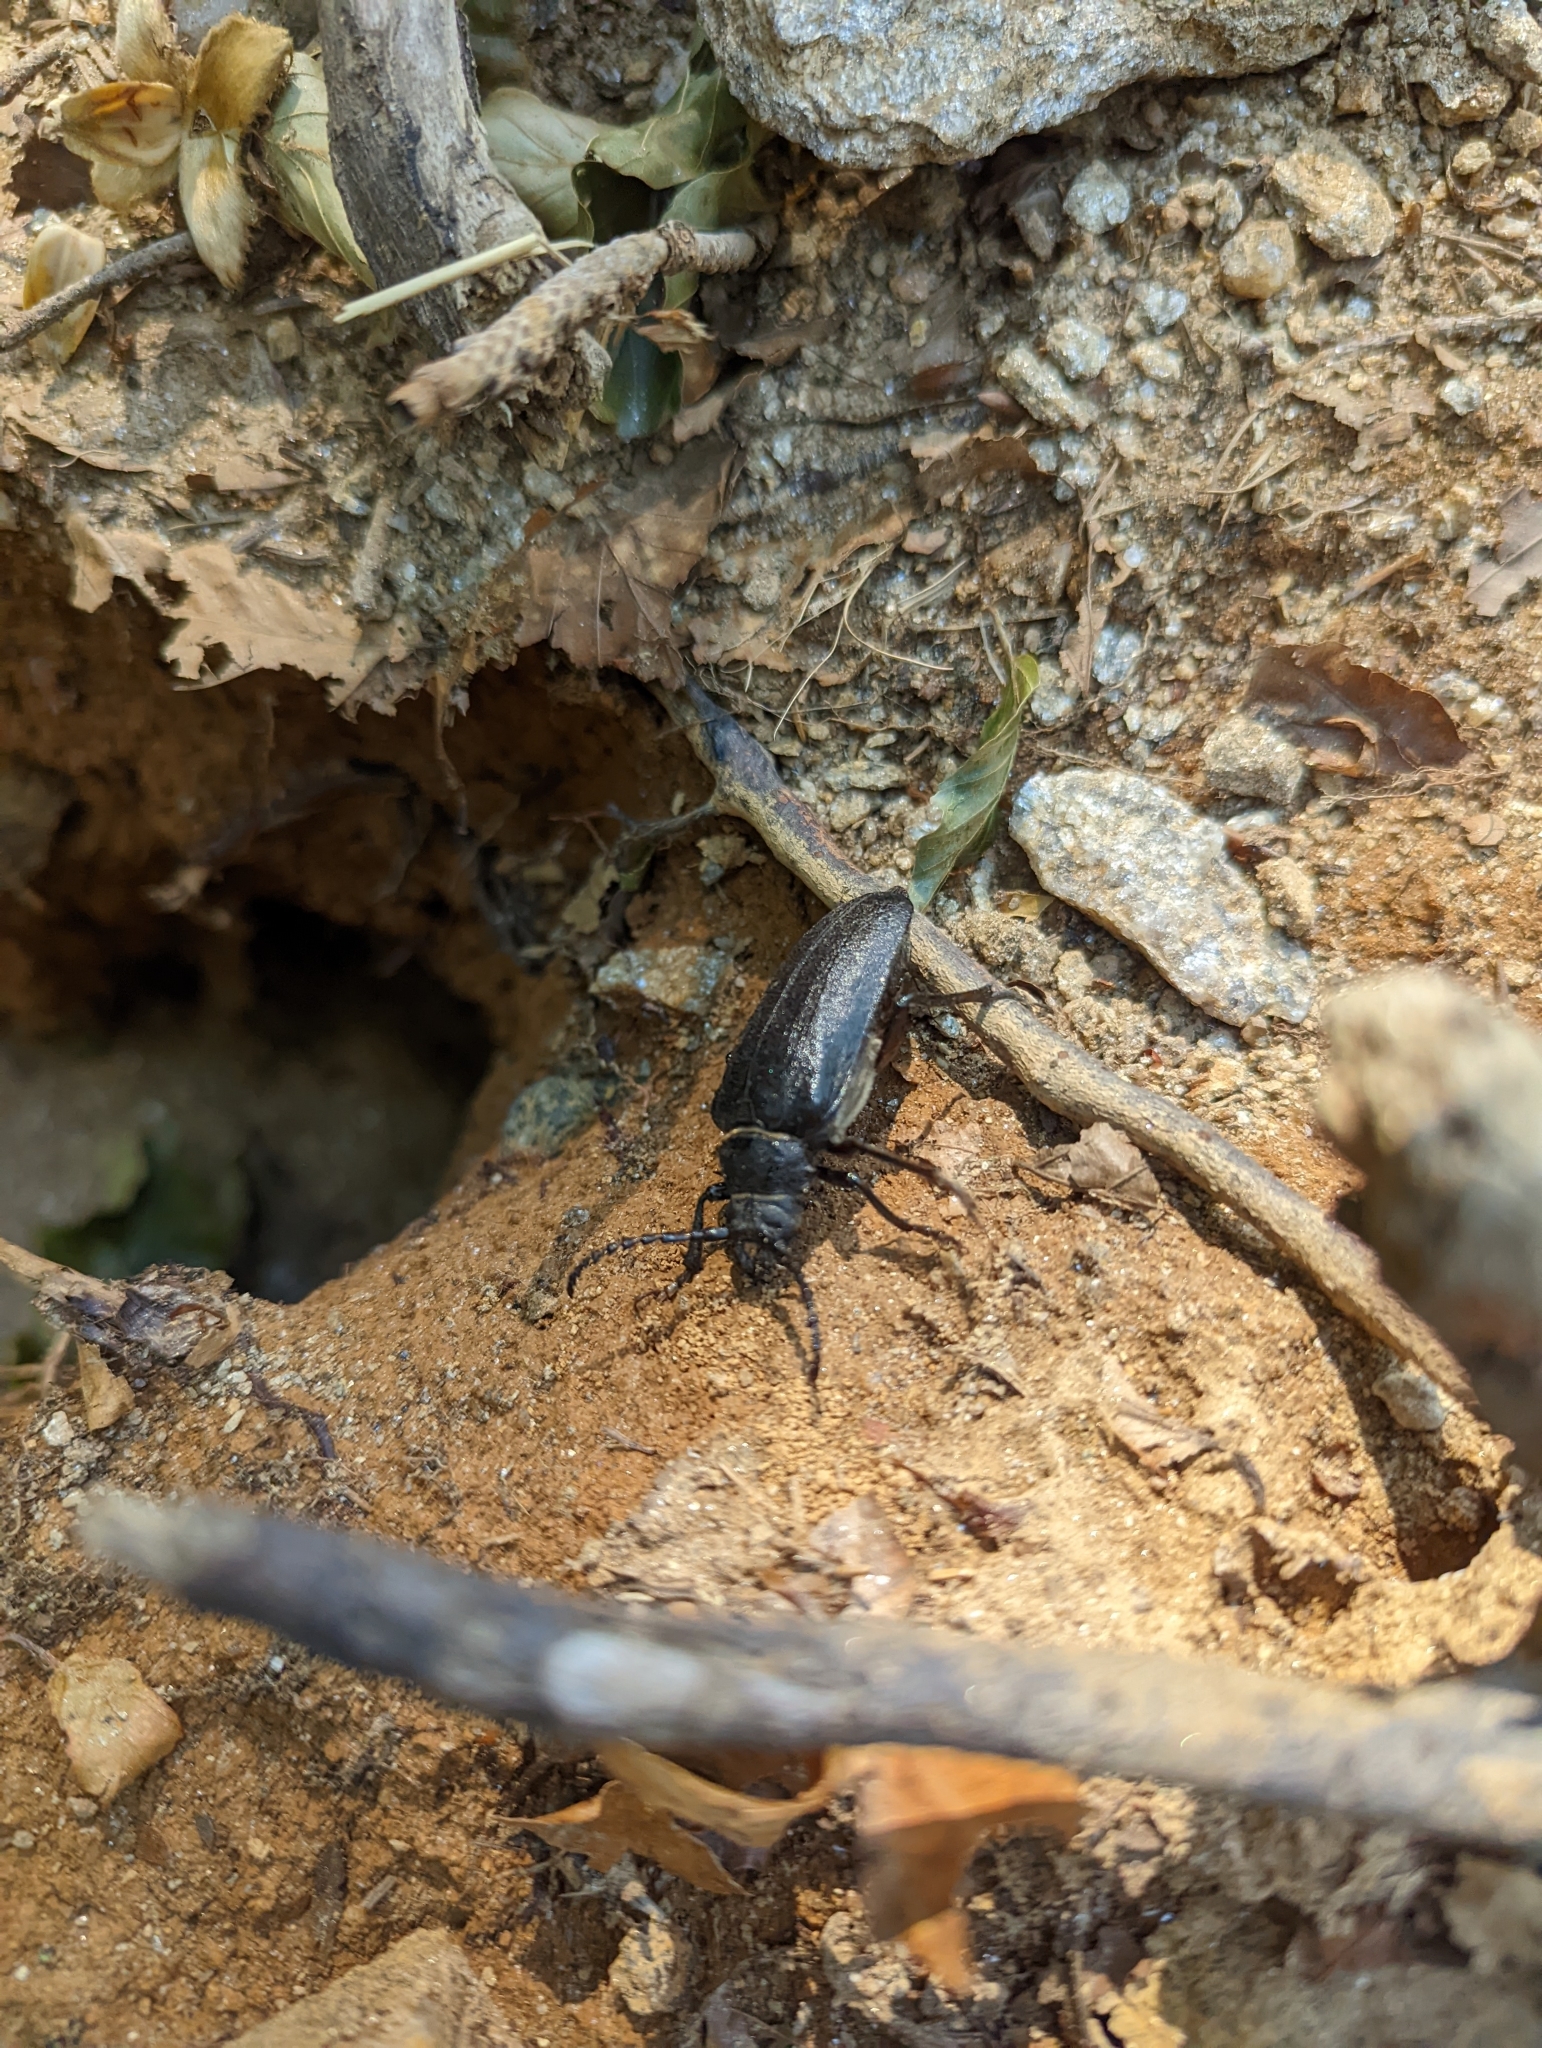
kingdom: Animalia
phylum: Arthropoda
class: Insecta
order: Coleoptera
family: Cerambycidae
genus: Prionus
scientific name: Prionus coriarius
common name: Tanner beetle
